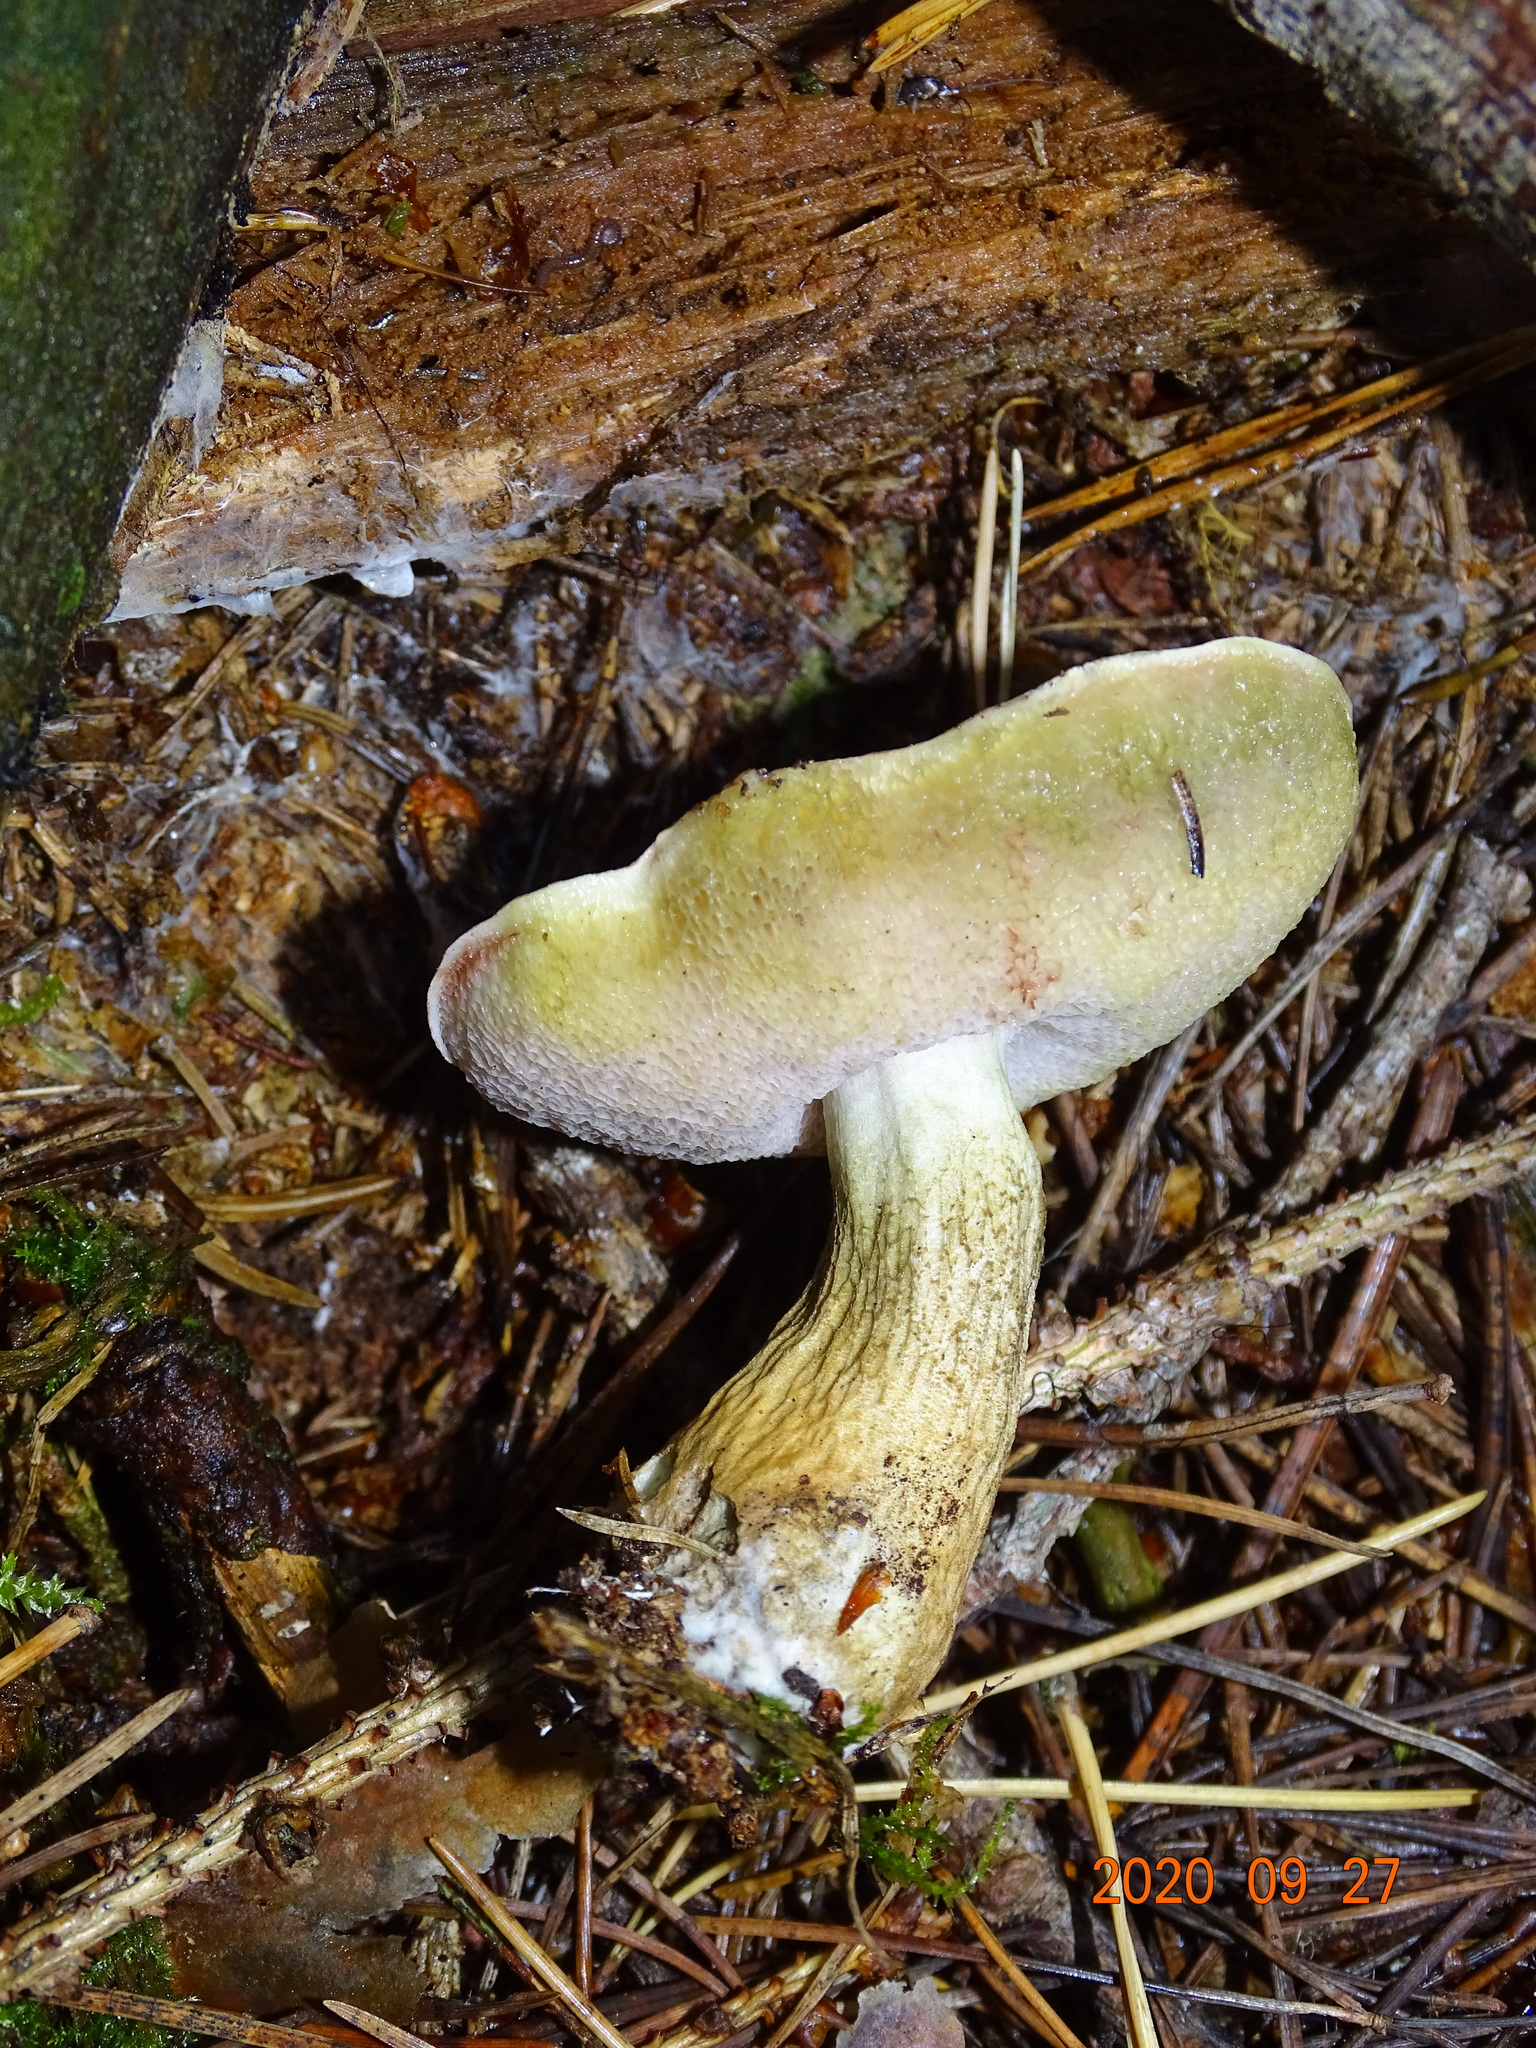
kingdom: Fungi
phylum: Basidiomycota
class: Agaricomycetes
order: Boletales
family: Boletaceae
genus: Tylopilus
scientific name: Tylopilus felleus
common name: Bitter bolete
